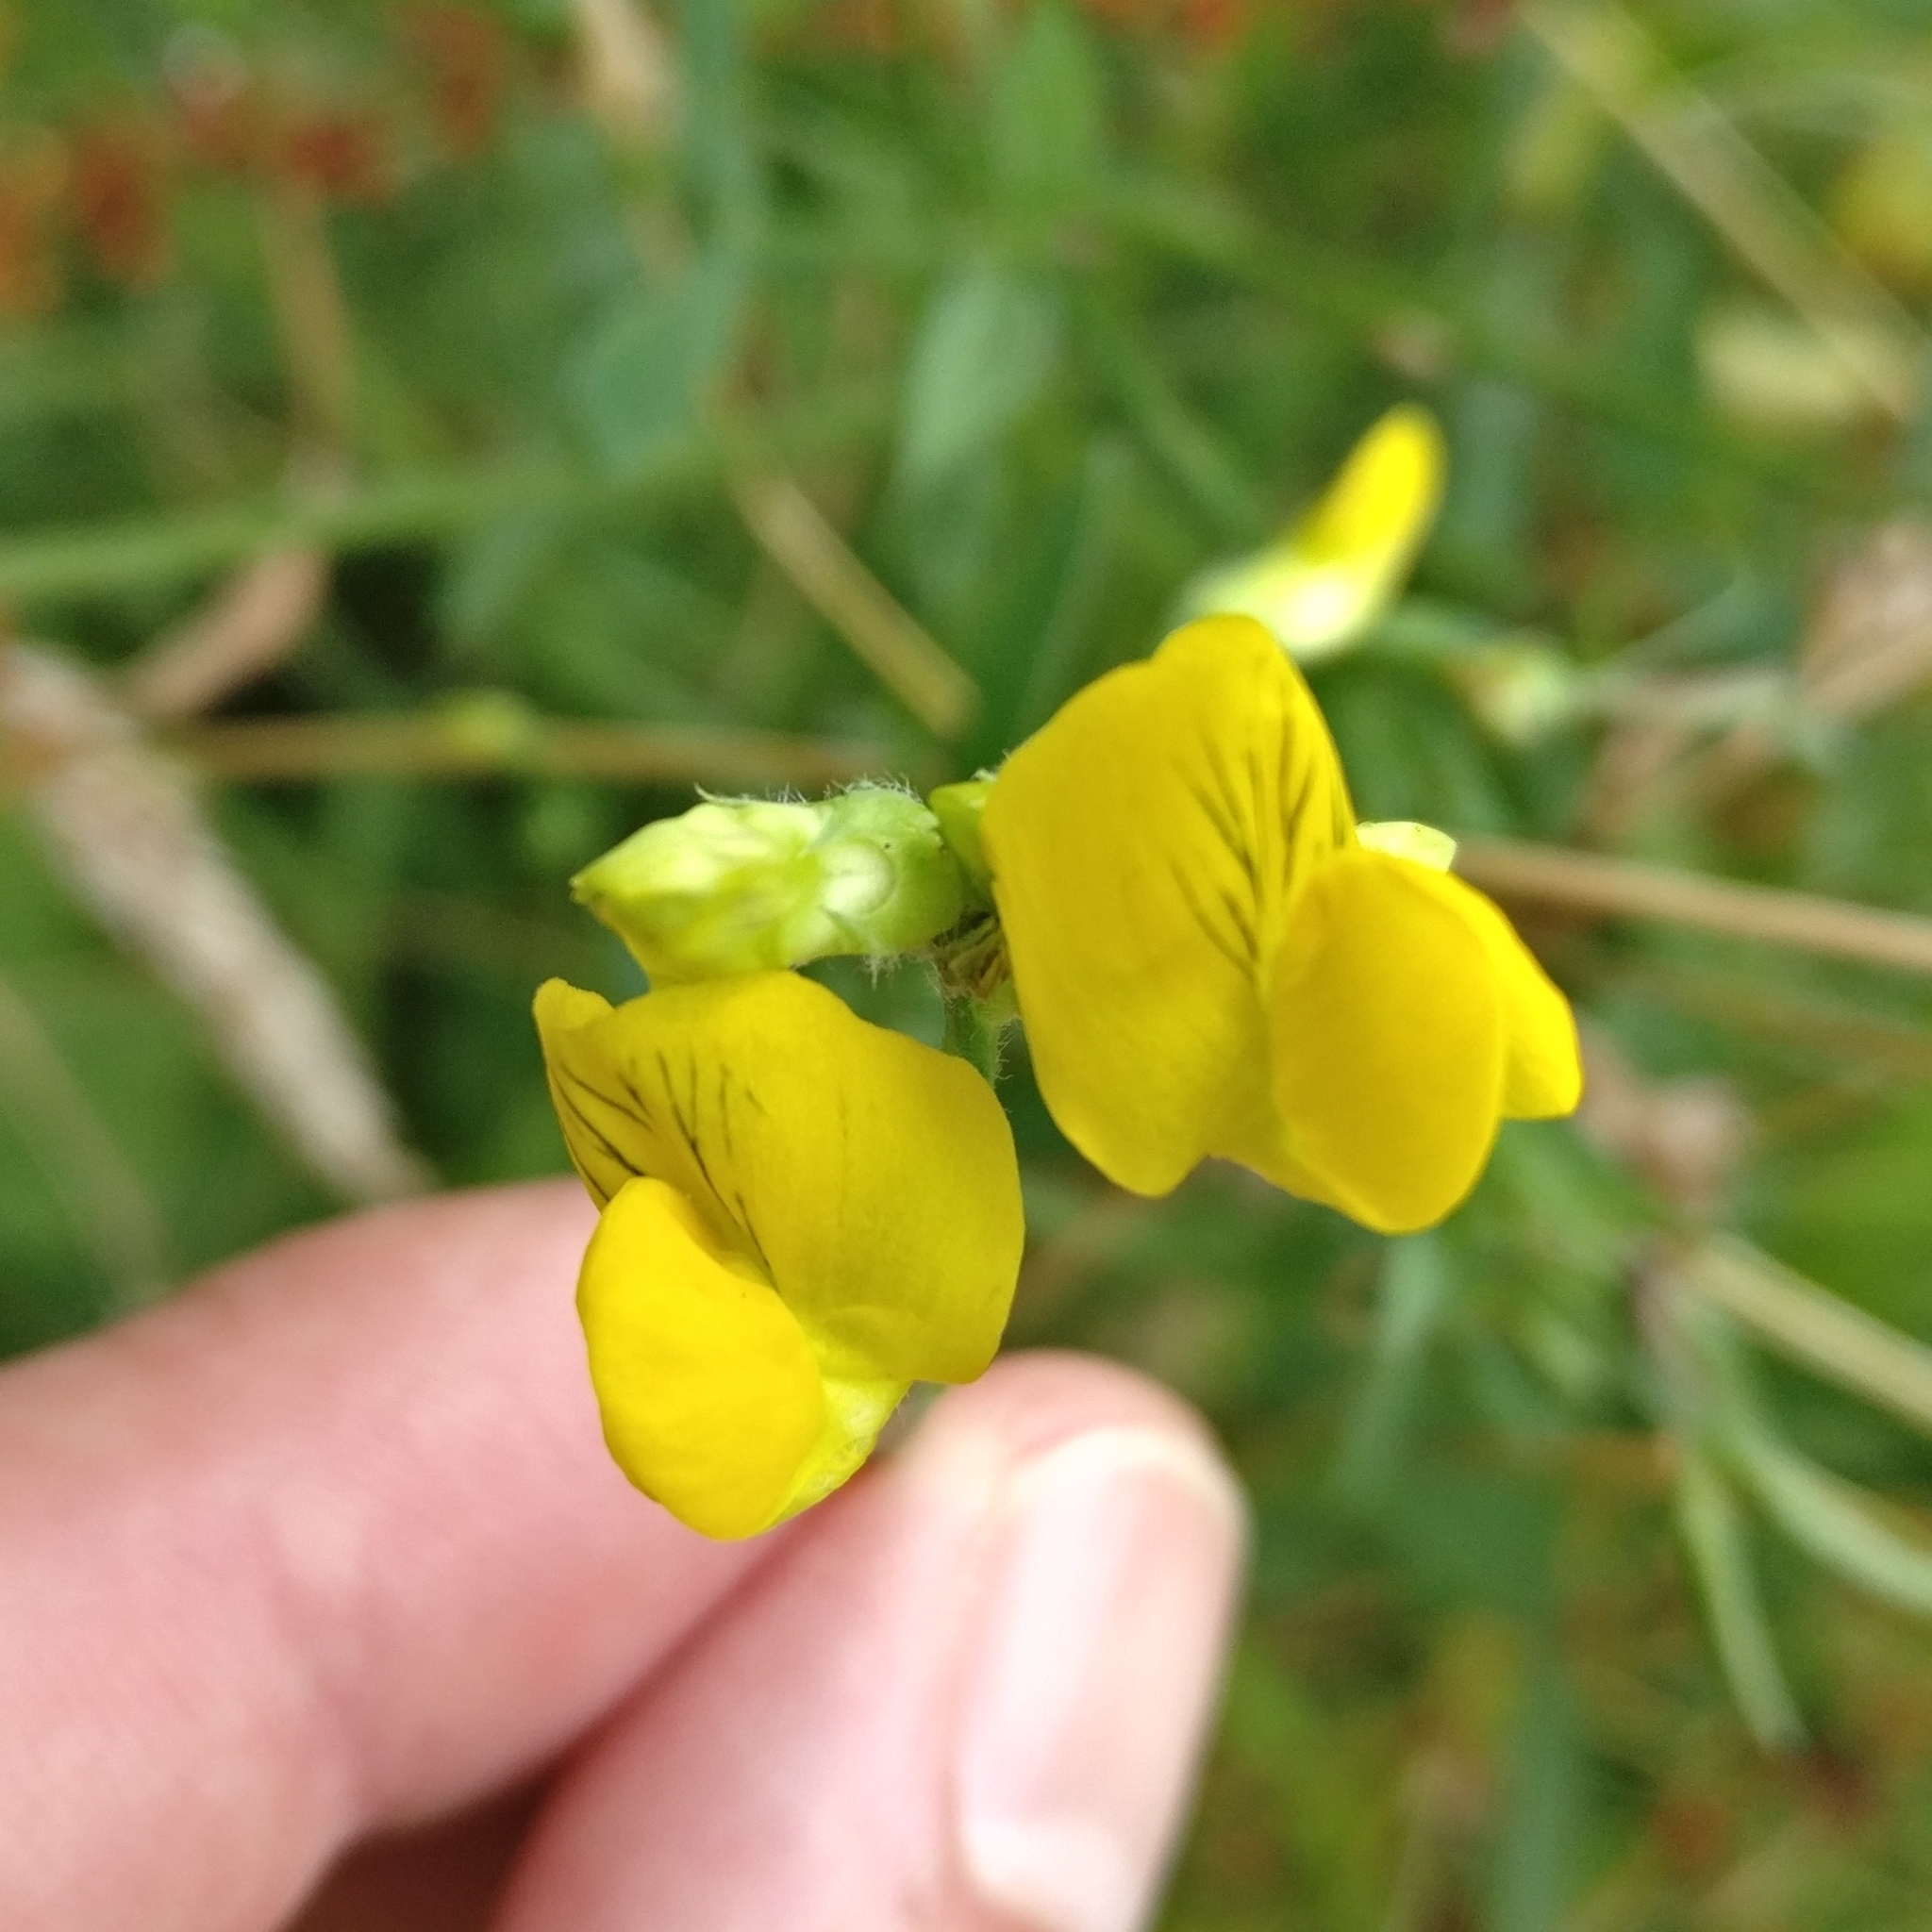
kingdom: Plantae
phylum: Tracheophyta
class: Magnoliopsida
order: Fabales
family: Fabaceae
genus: Lathyrus
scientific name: Lathyrus pratensis
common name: Meadow vetchling
